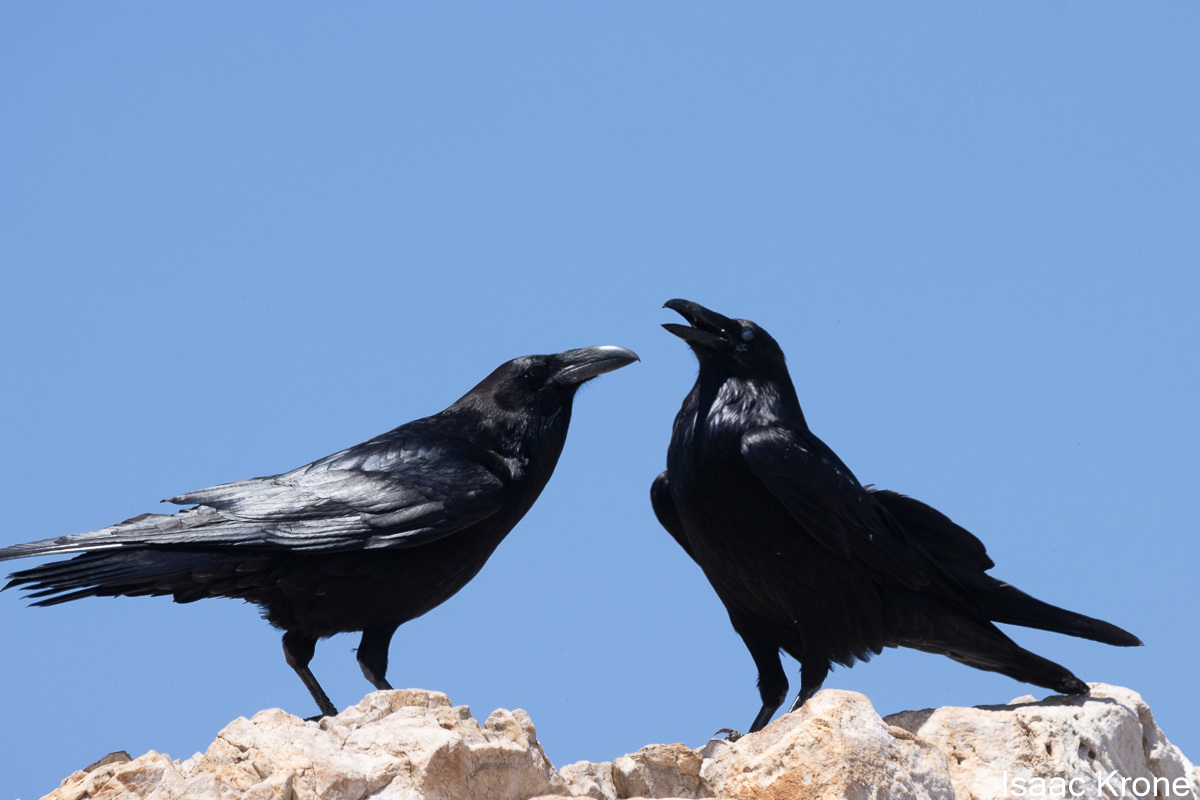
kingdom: Animalia
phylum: Chordata
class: Aves
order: Passeriformes
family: Corvidae
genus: Corvus
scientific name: Corvus corax
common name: Common raven
